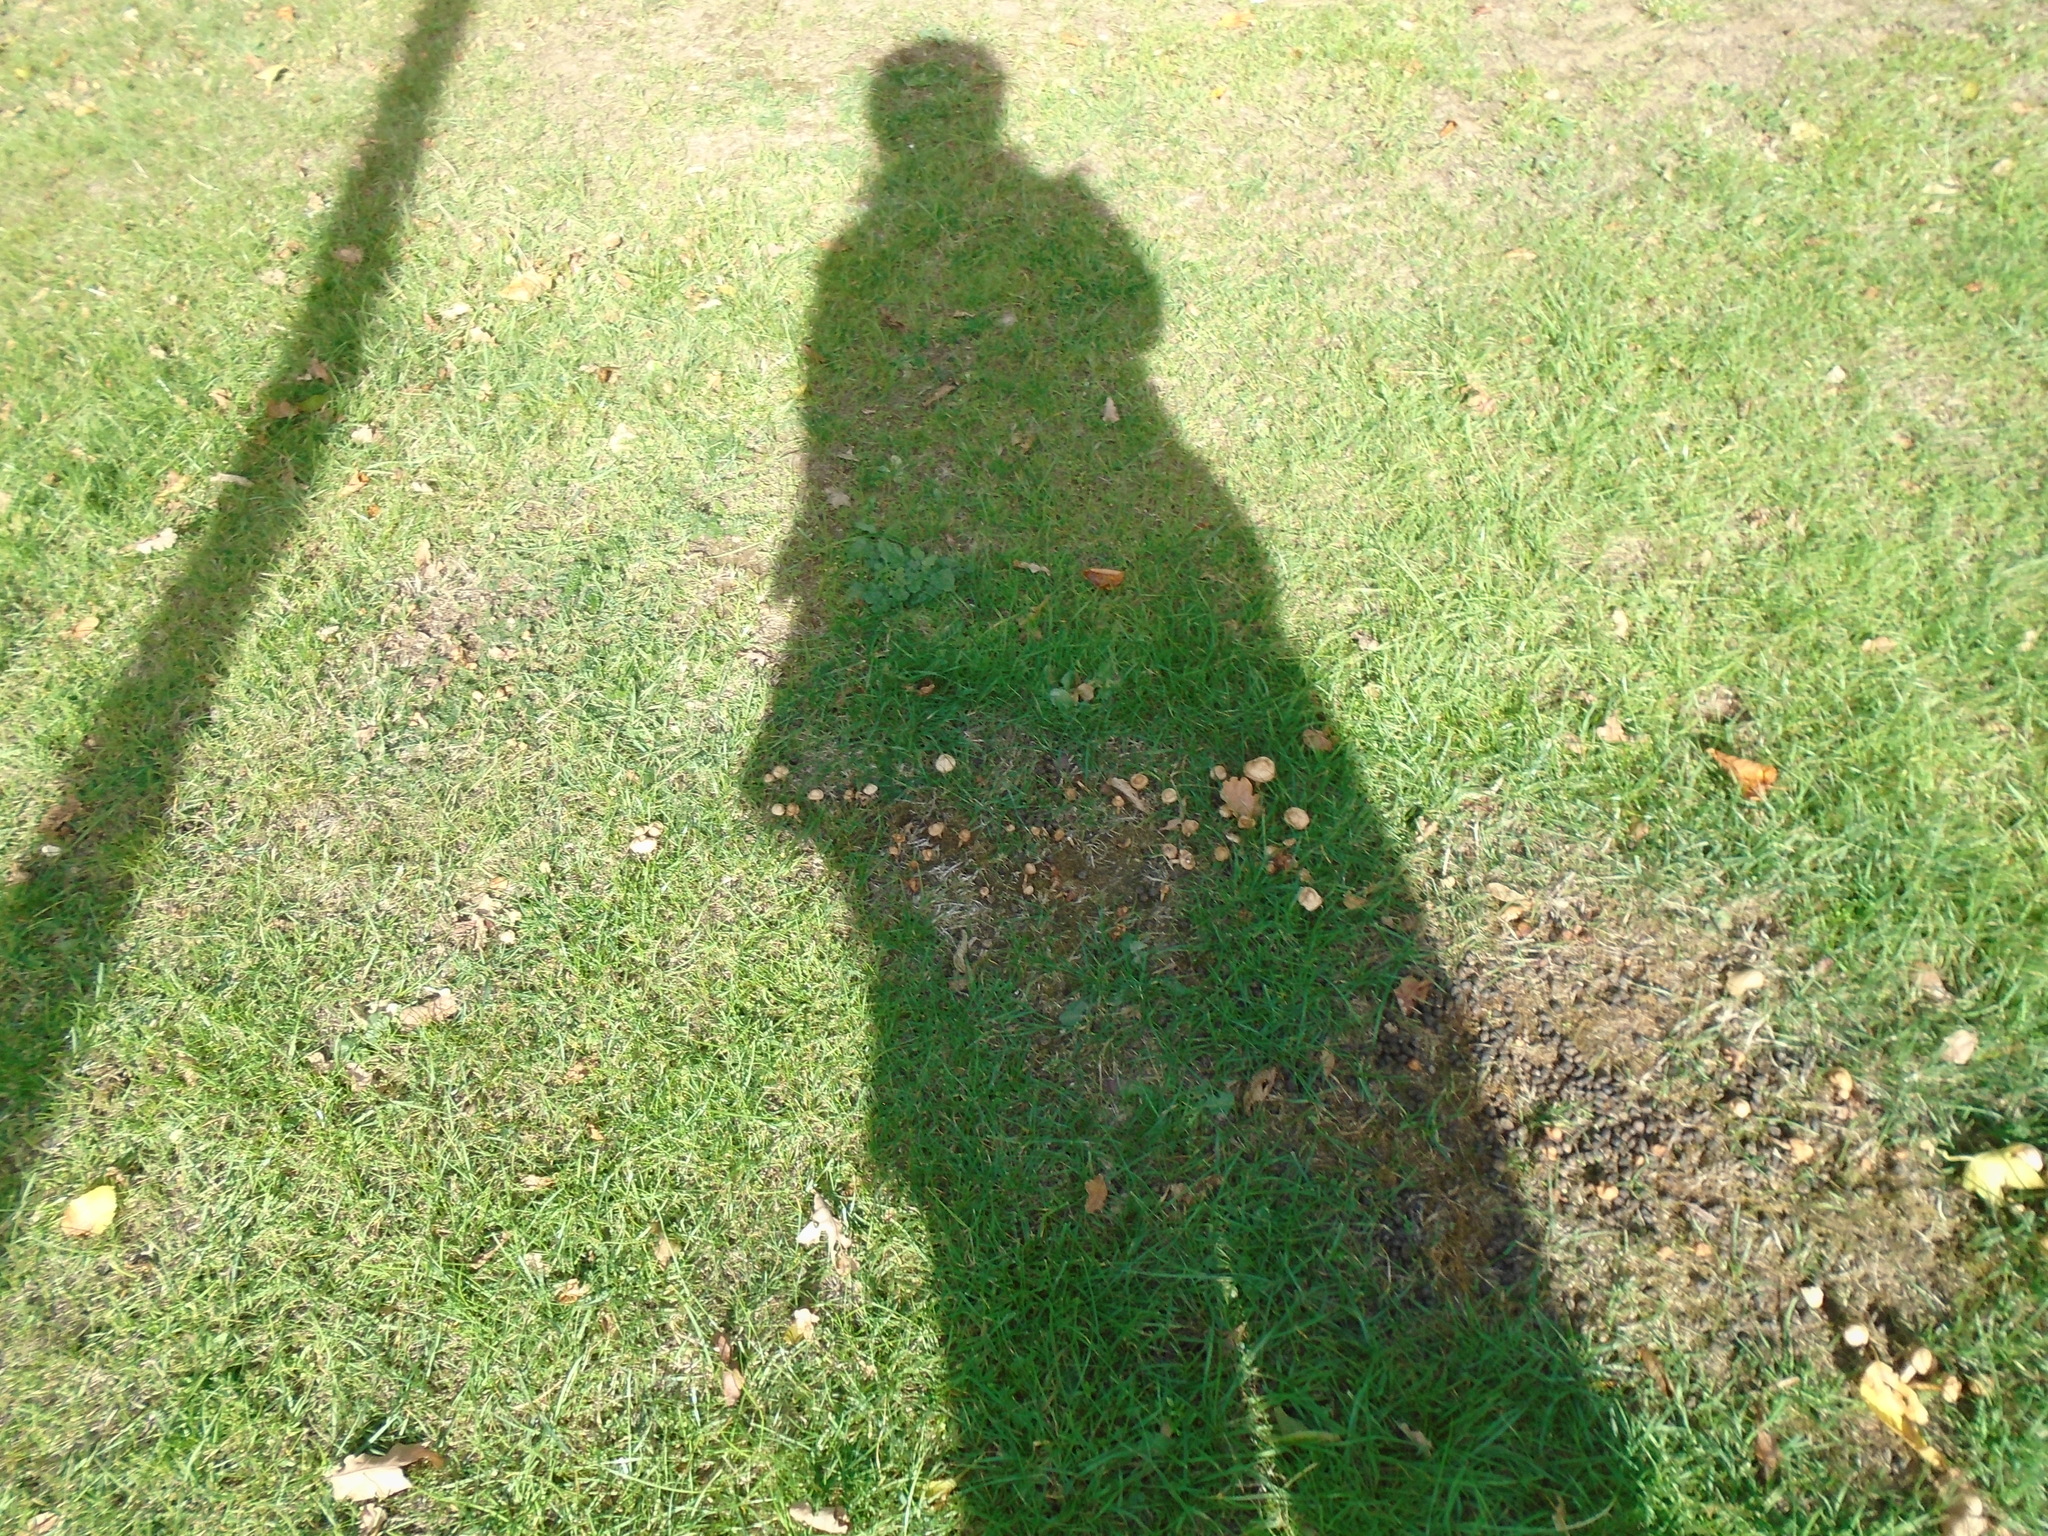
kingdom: Fungi
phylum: Basidiomycota
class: Agaricomycetes
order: Agaricales
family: Marasmiaceae
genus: Marasmius
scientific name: Marasmius oreades
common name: Fairy ring champignon
